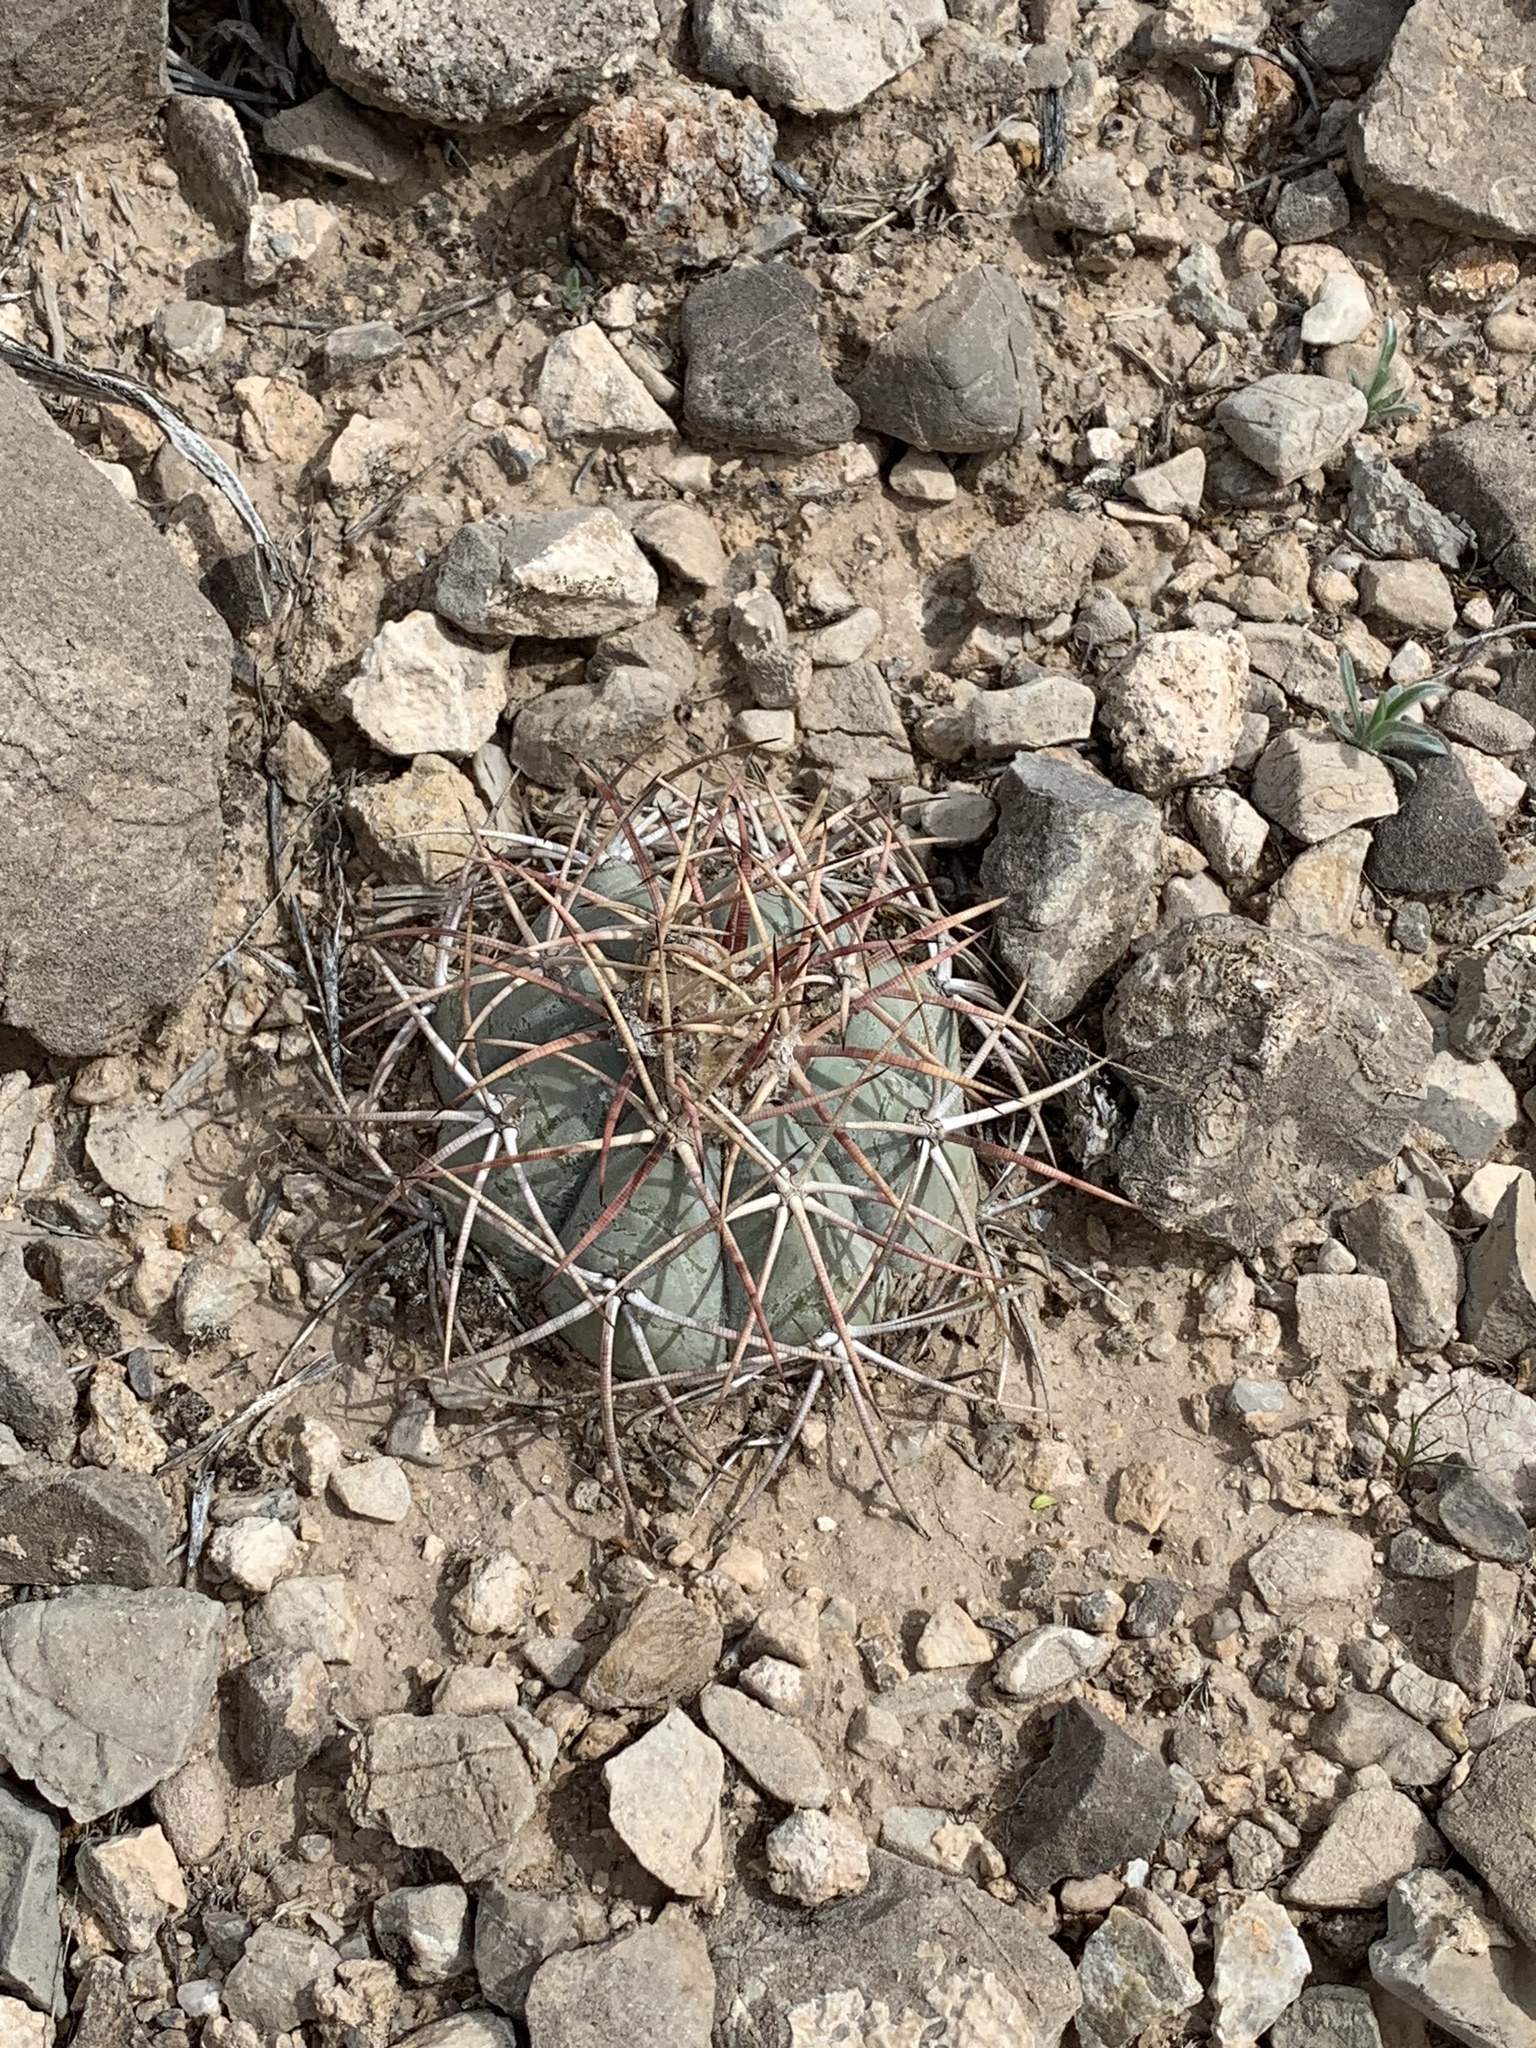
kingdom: Plantae
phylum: Tracheophyta
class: Magnoliopsida
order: Caryophyllales
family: Cactaceae
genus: Echinocactus
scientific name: Echinocactus horizonthalonius
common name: Devilshead
